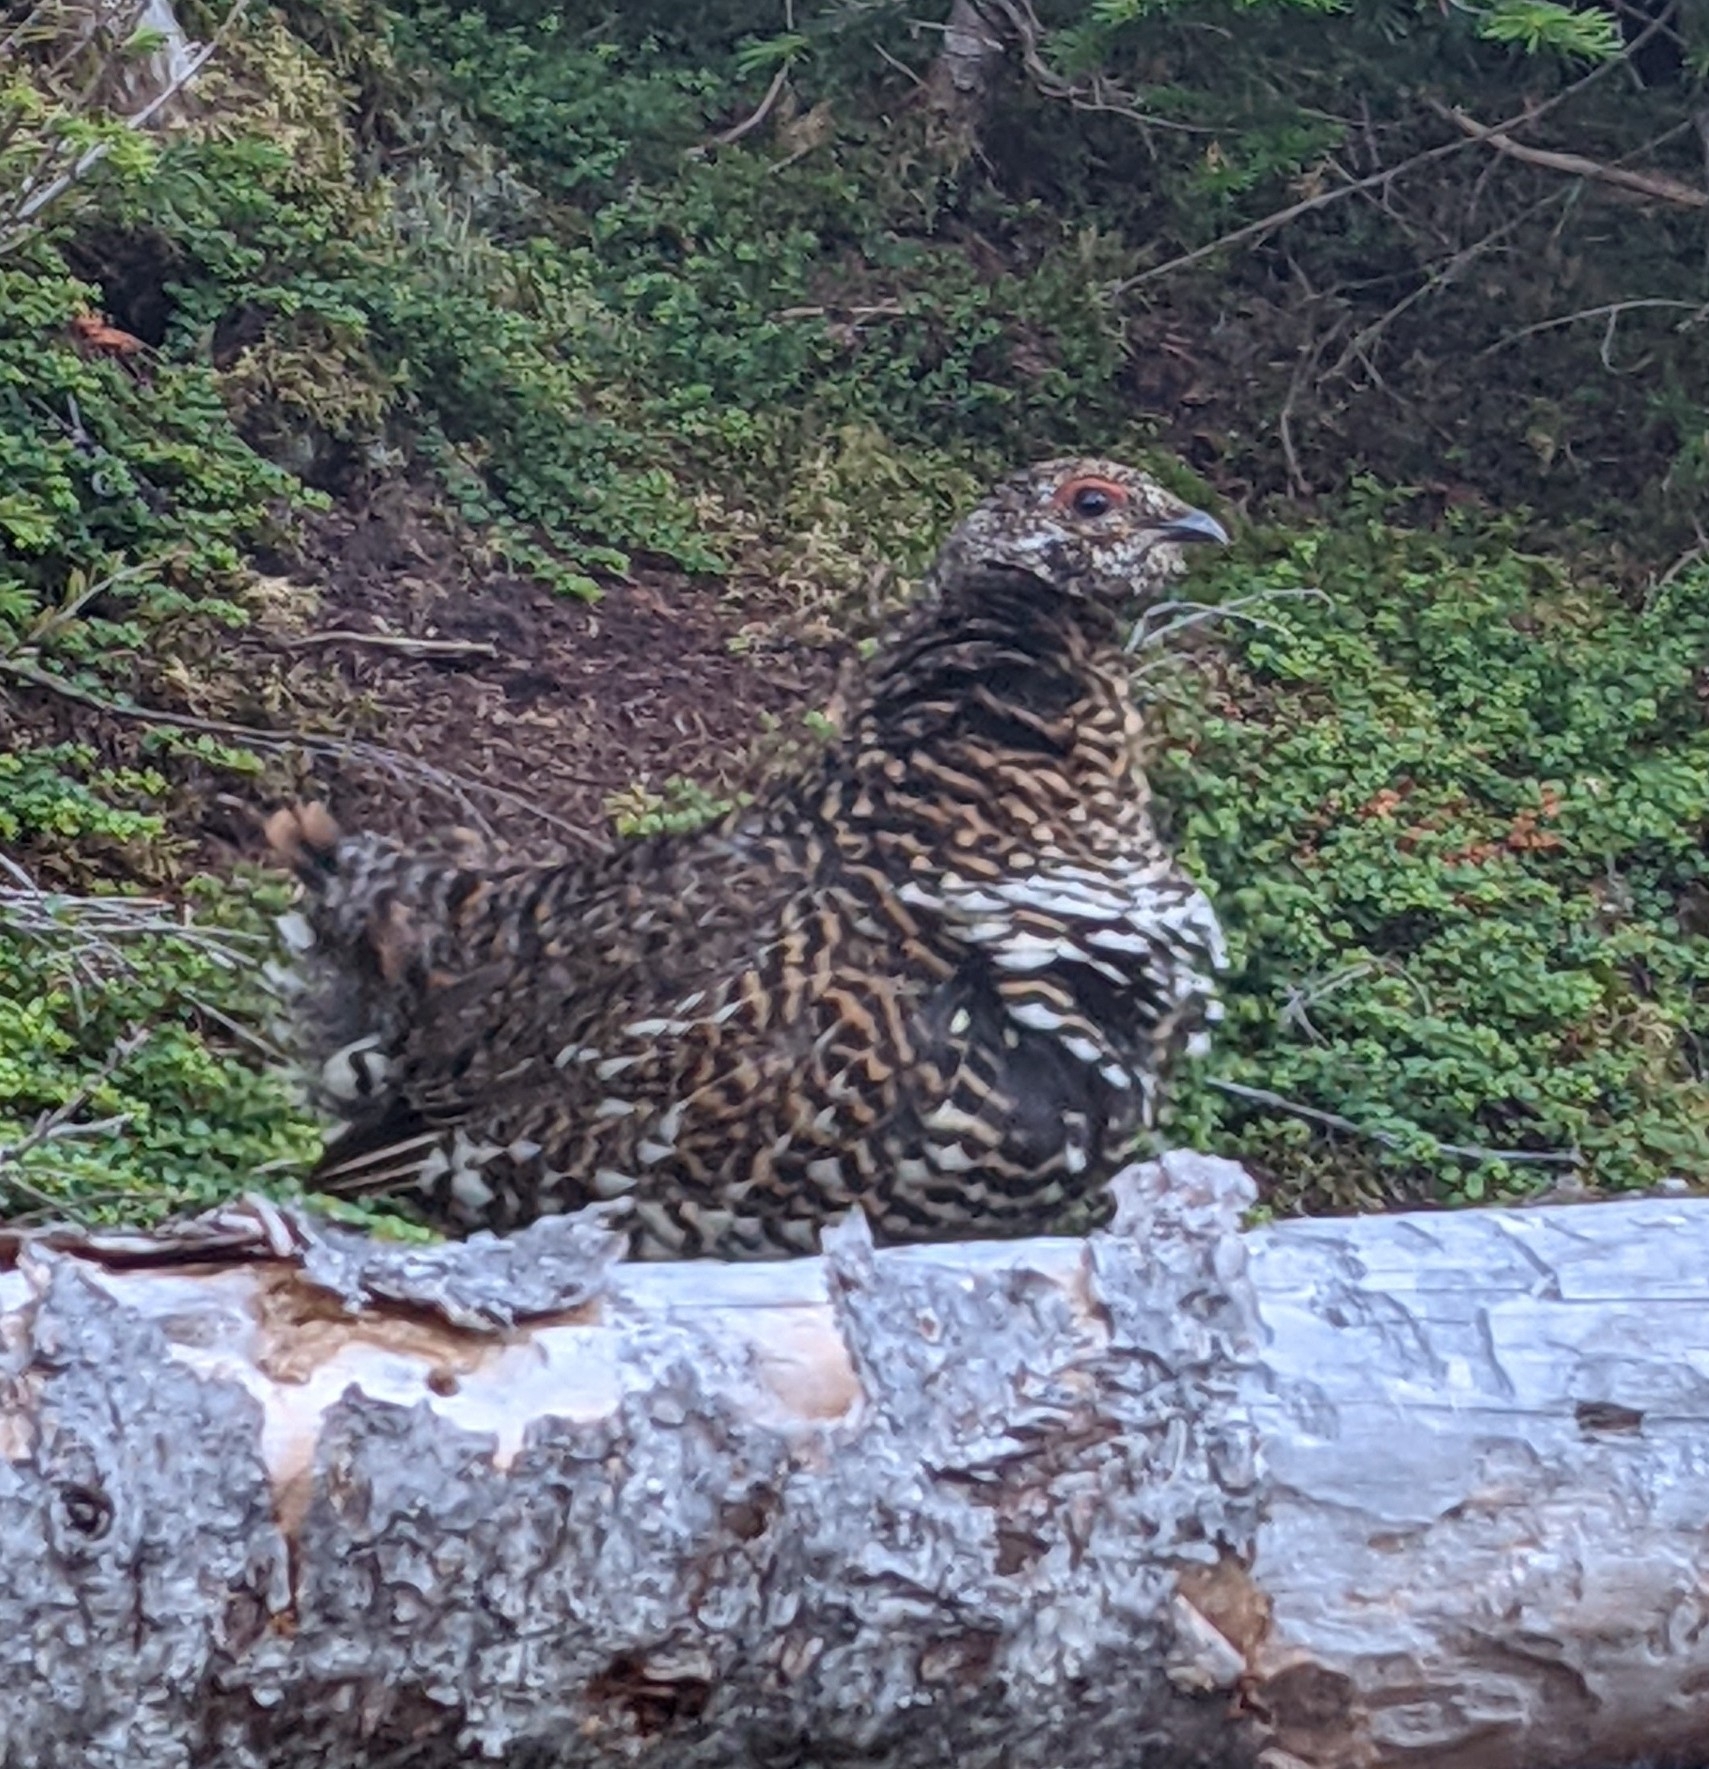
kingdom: Animalia
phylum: Chordata
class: Aves
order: Galliformes
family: Phasianidae
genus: Canachites
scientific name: Canachites canadensis
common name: Spruce grouse
